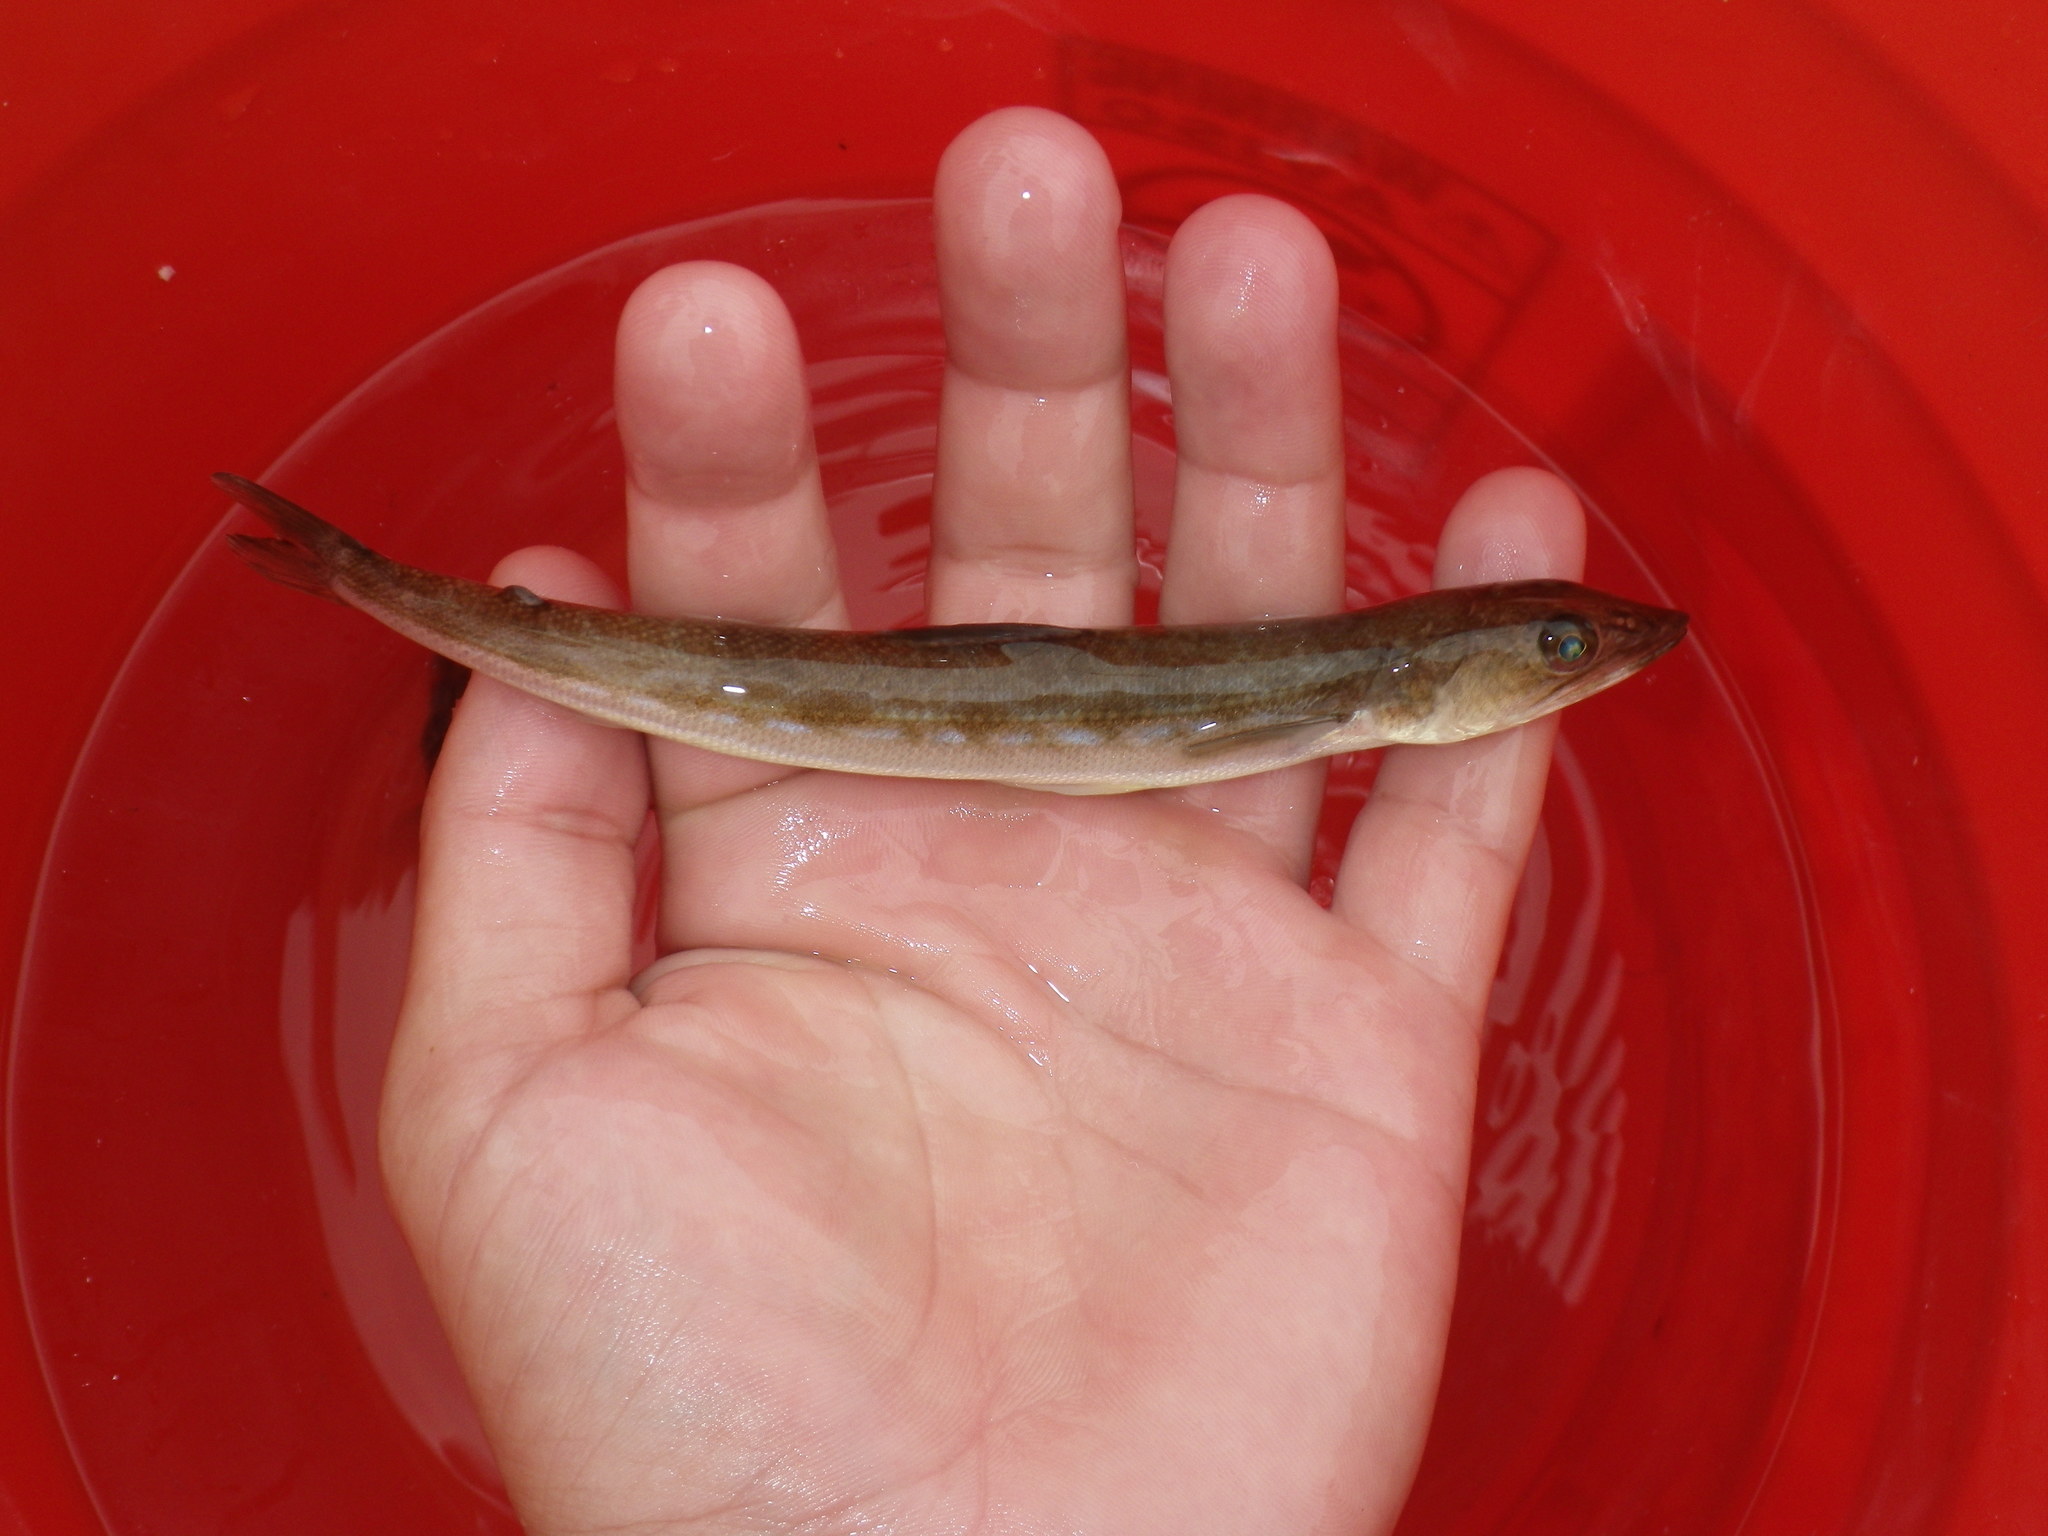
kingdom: Animalia
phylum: Chordata
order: Aulopiformes
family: Synodontidae
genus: Synodus
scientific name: Synodus lucioceps
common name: California lizardfish
